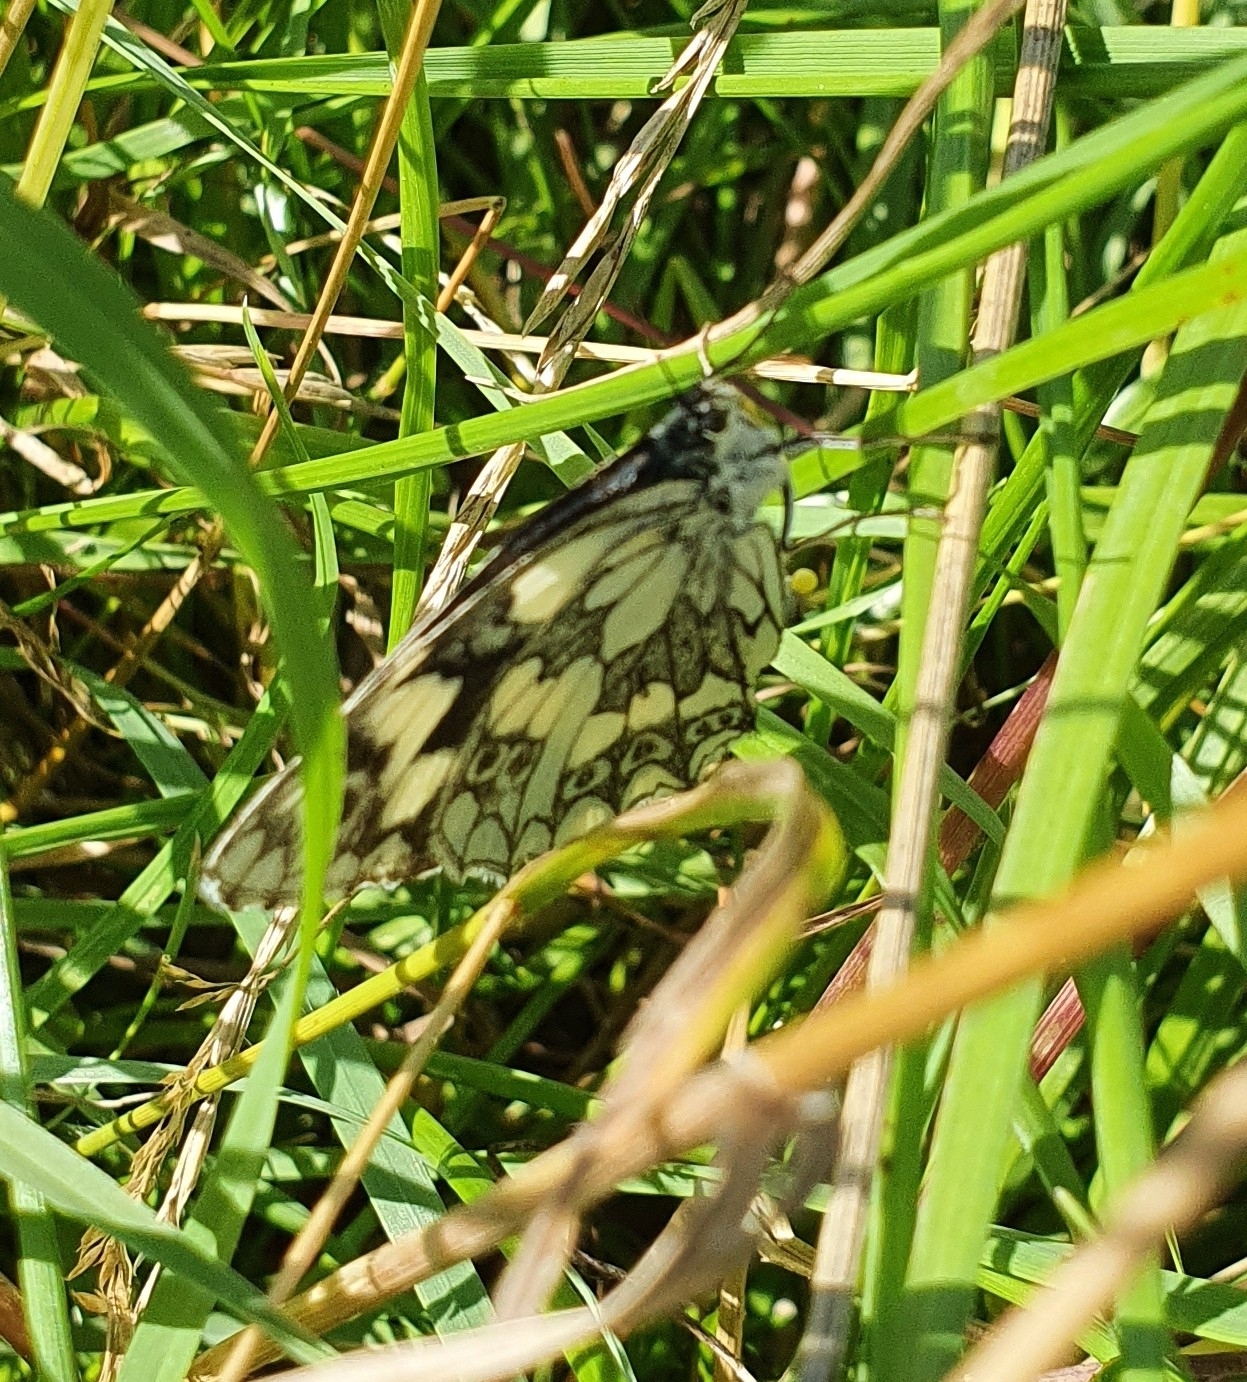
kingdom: Animalia
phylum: Arthropoda
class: Insecta
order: Lepidoptera
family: Nymphalidae
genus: Melanargia
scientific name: Melanargia galathea
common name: Marbled white
